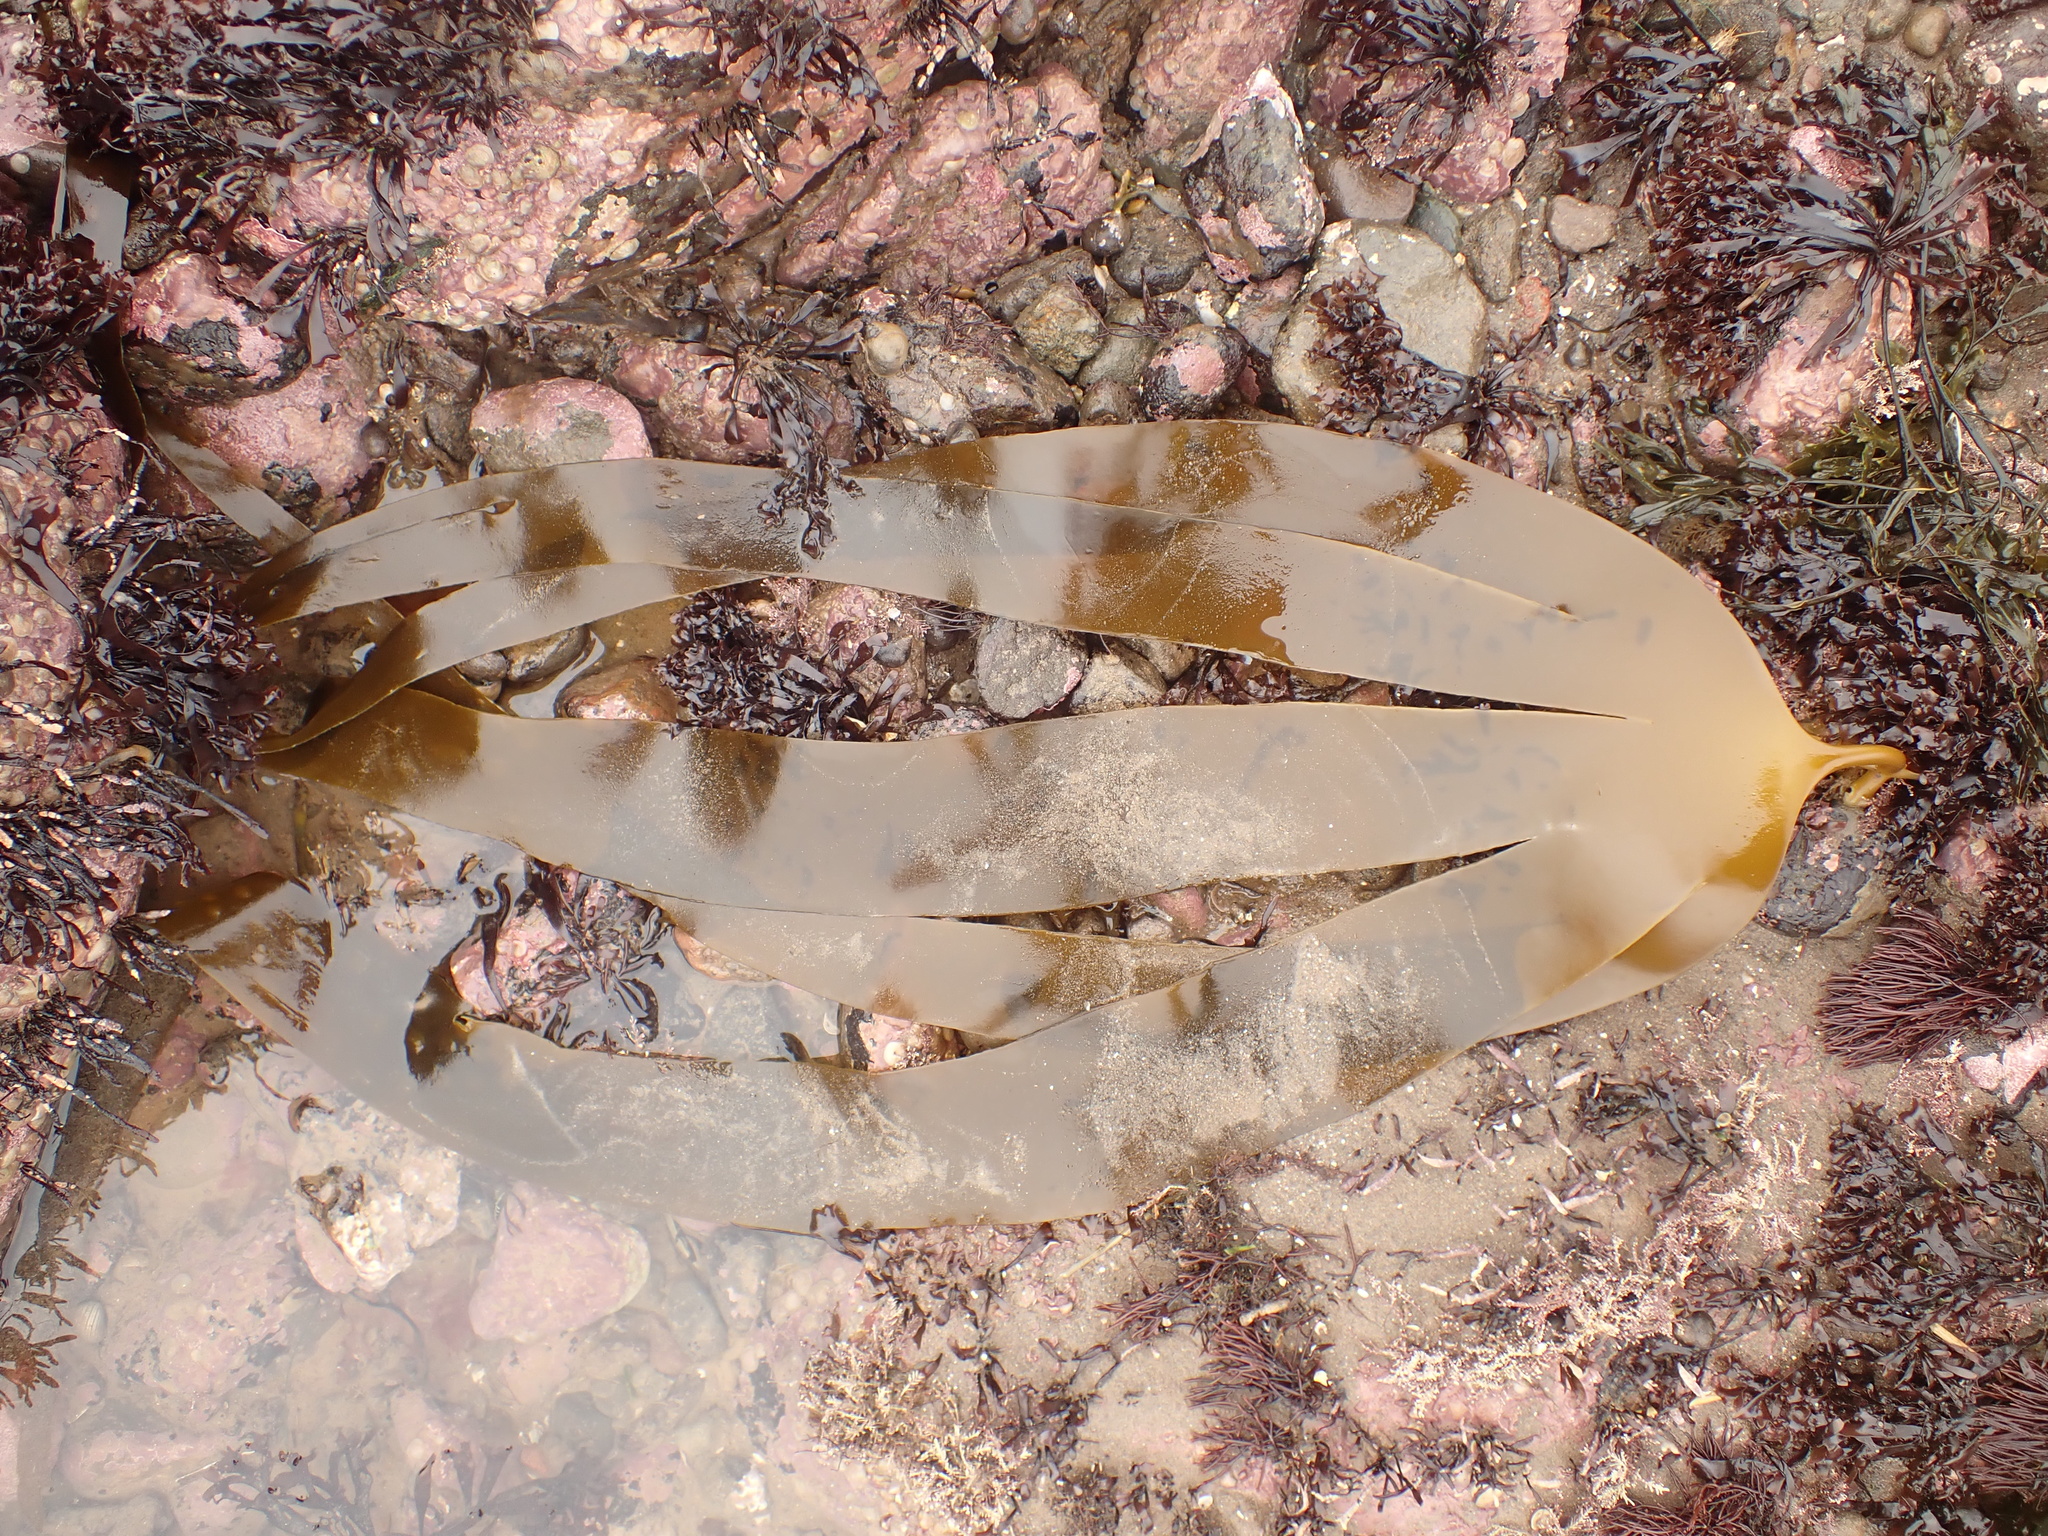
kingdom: Chromista
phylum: Ochrophyta
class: Phaeophyceae
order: Laminariales
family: Laminariaceae
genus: Laminaria
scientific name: Laminaria digitata
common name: Oarweed
